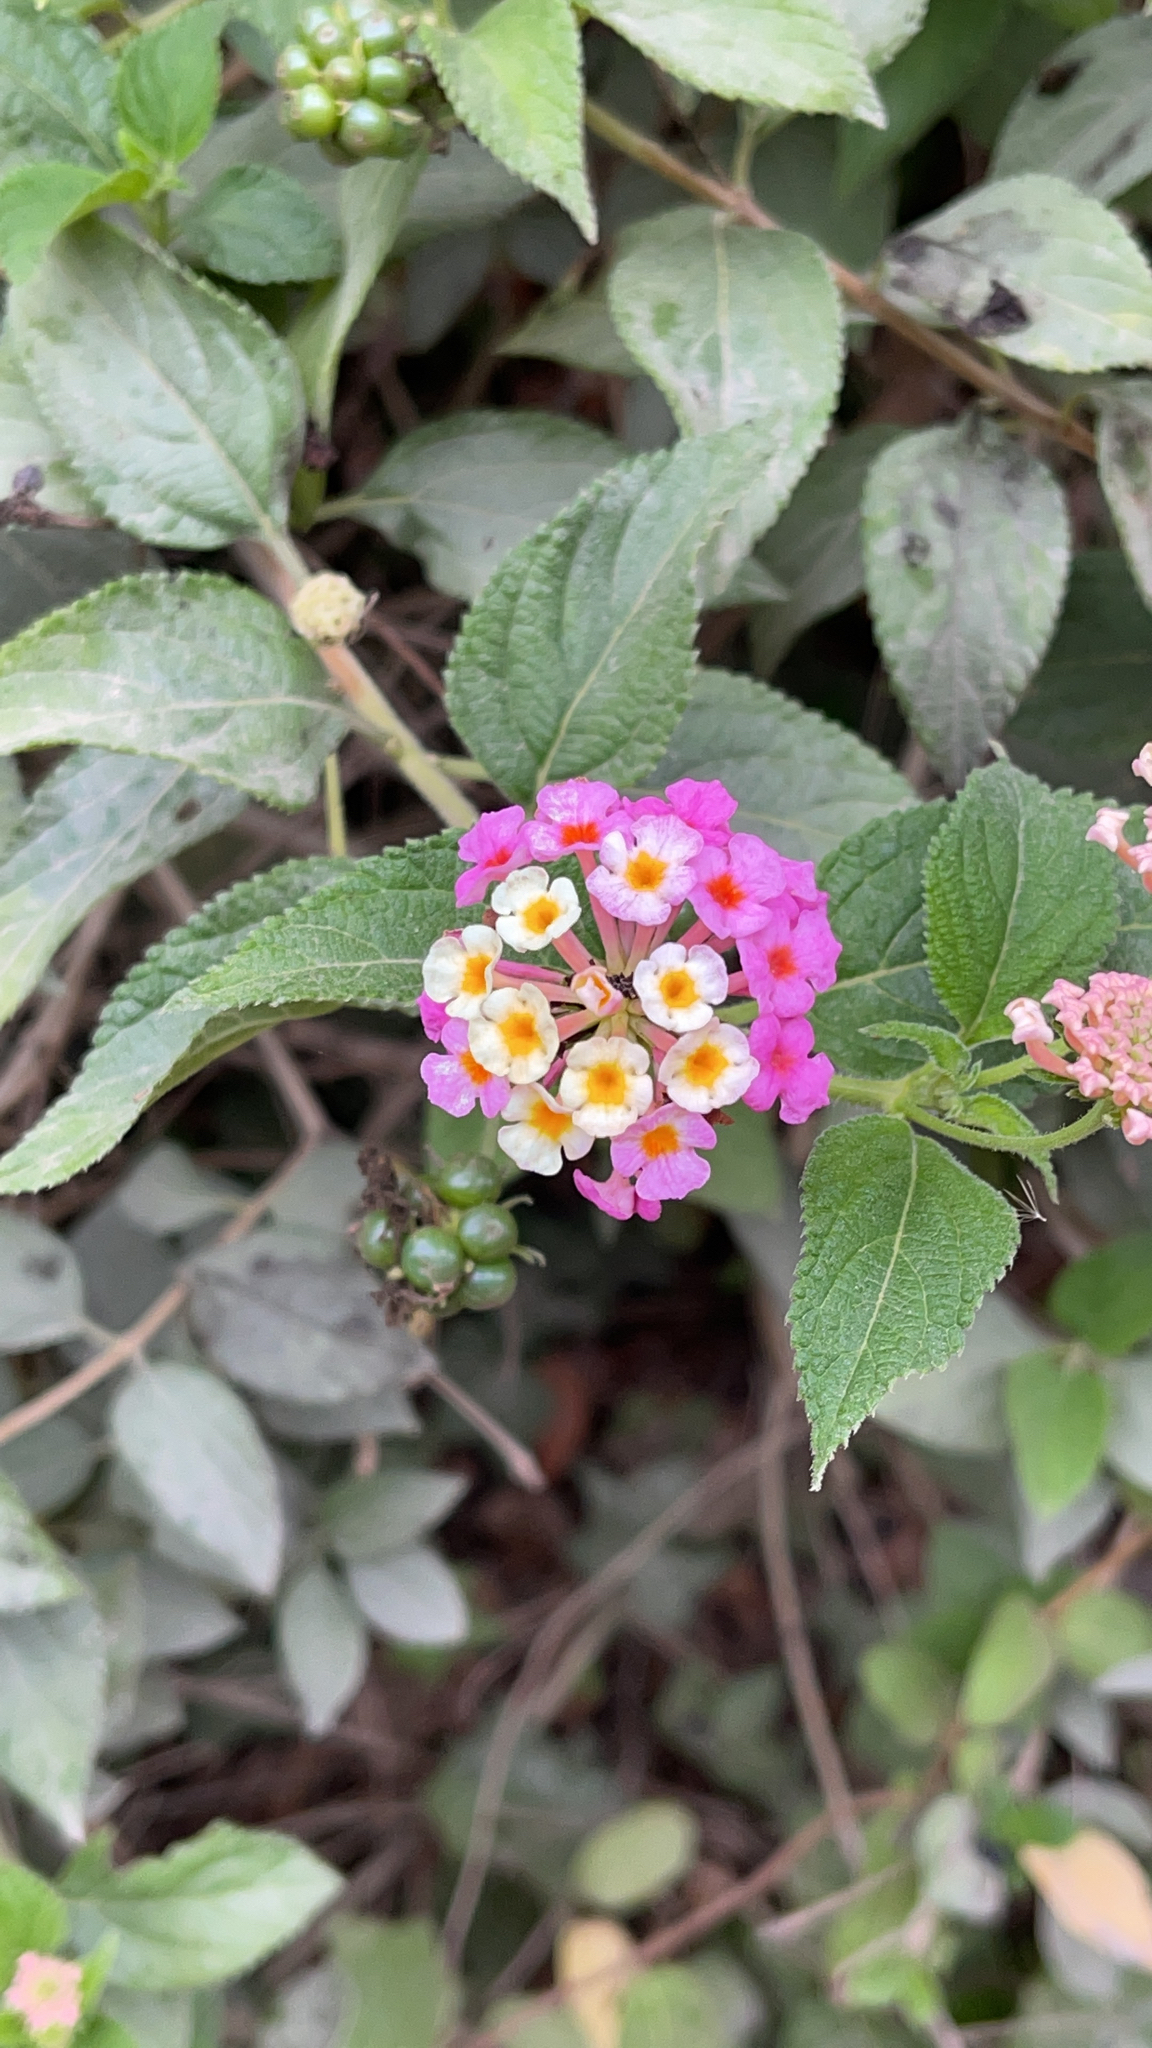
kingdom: Plantae
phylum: Tracheophyta
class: Magnoliopsida
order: Lamiales
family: Verbenaceae
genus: Lantana
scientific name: Lantana camara
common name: Lantana
